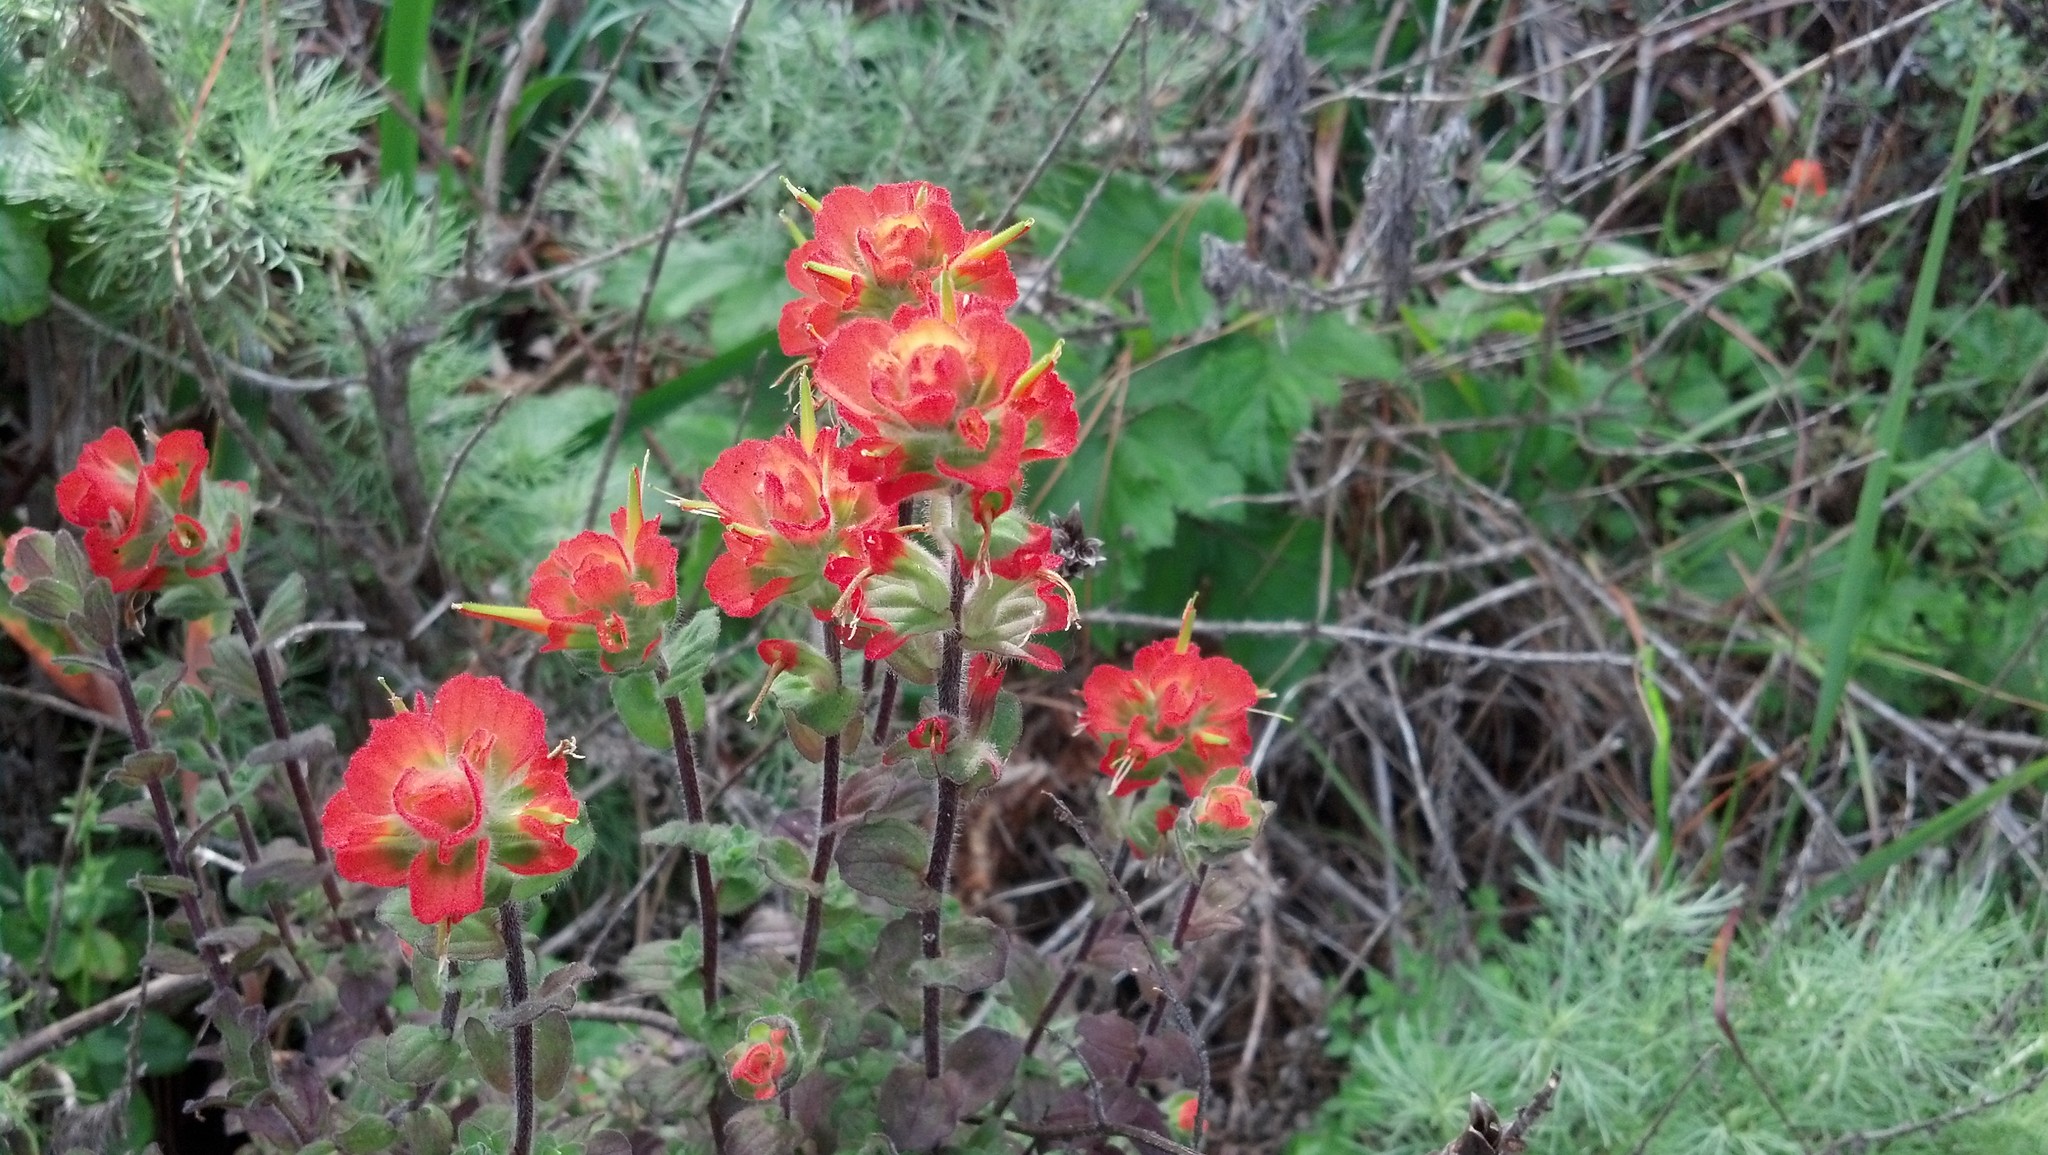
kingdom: Plantae
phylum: Tracheophyta
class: Magnoliopsida
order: Lamiales
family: Orobanchaceae
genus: Castilleja
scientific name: Castilleja latifolia
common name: Monterey indian paintbrush
